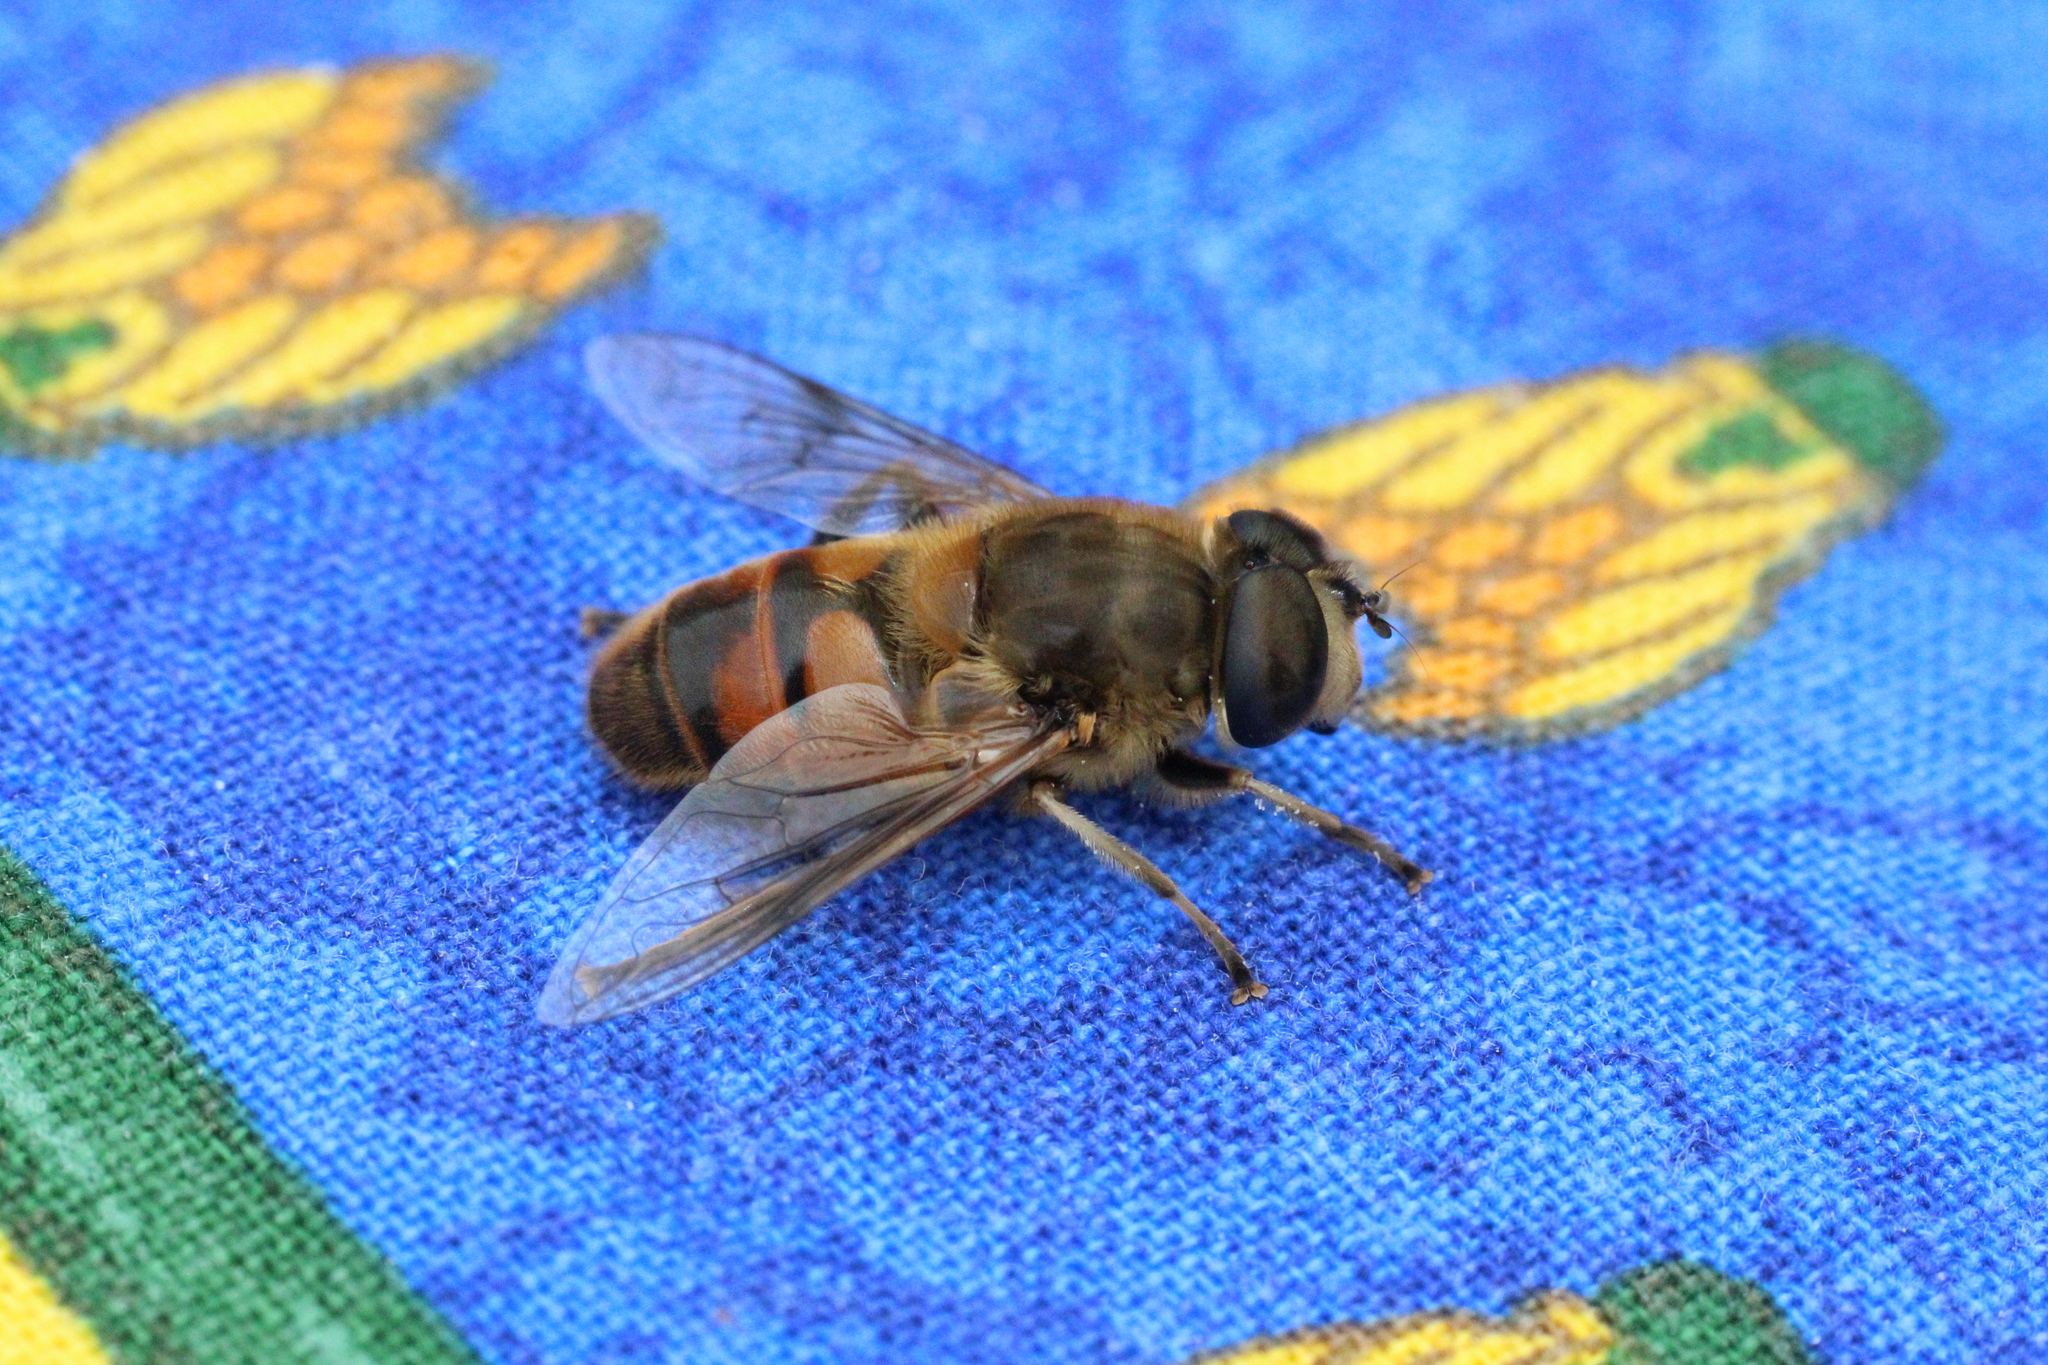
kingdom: Animalia
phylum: Arthropoda
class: Insecta
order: Diptera
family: Syrphidae
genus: Eristalis
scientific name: Eristalis tenax
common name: Drone fly
